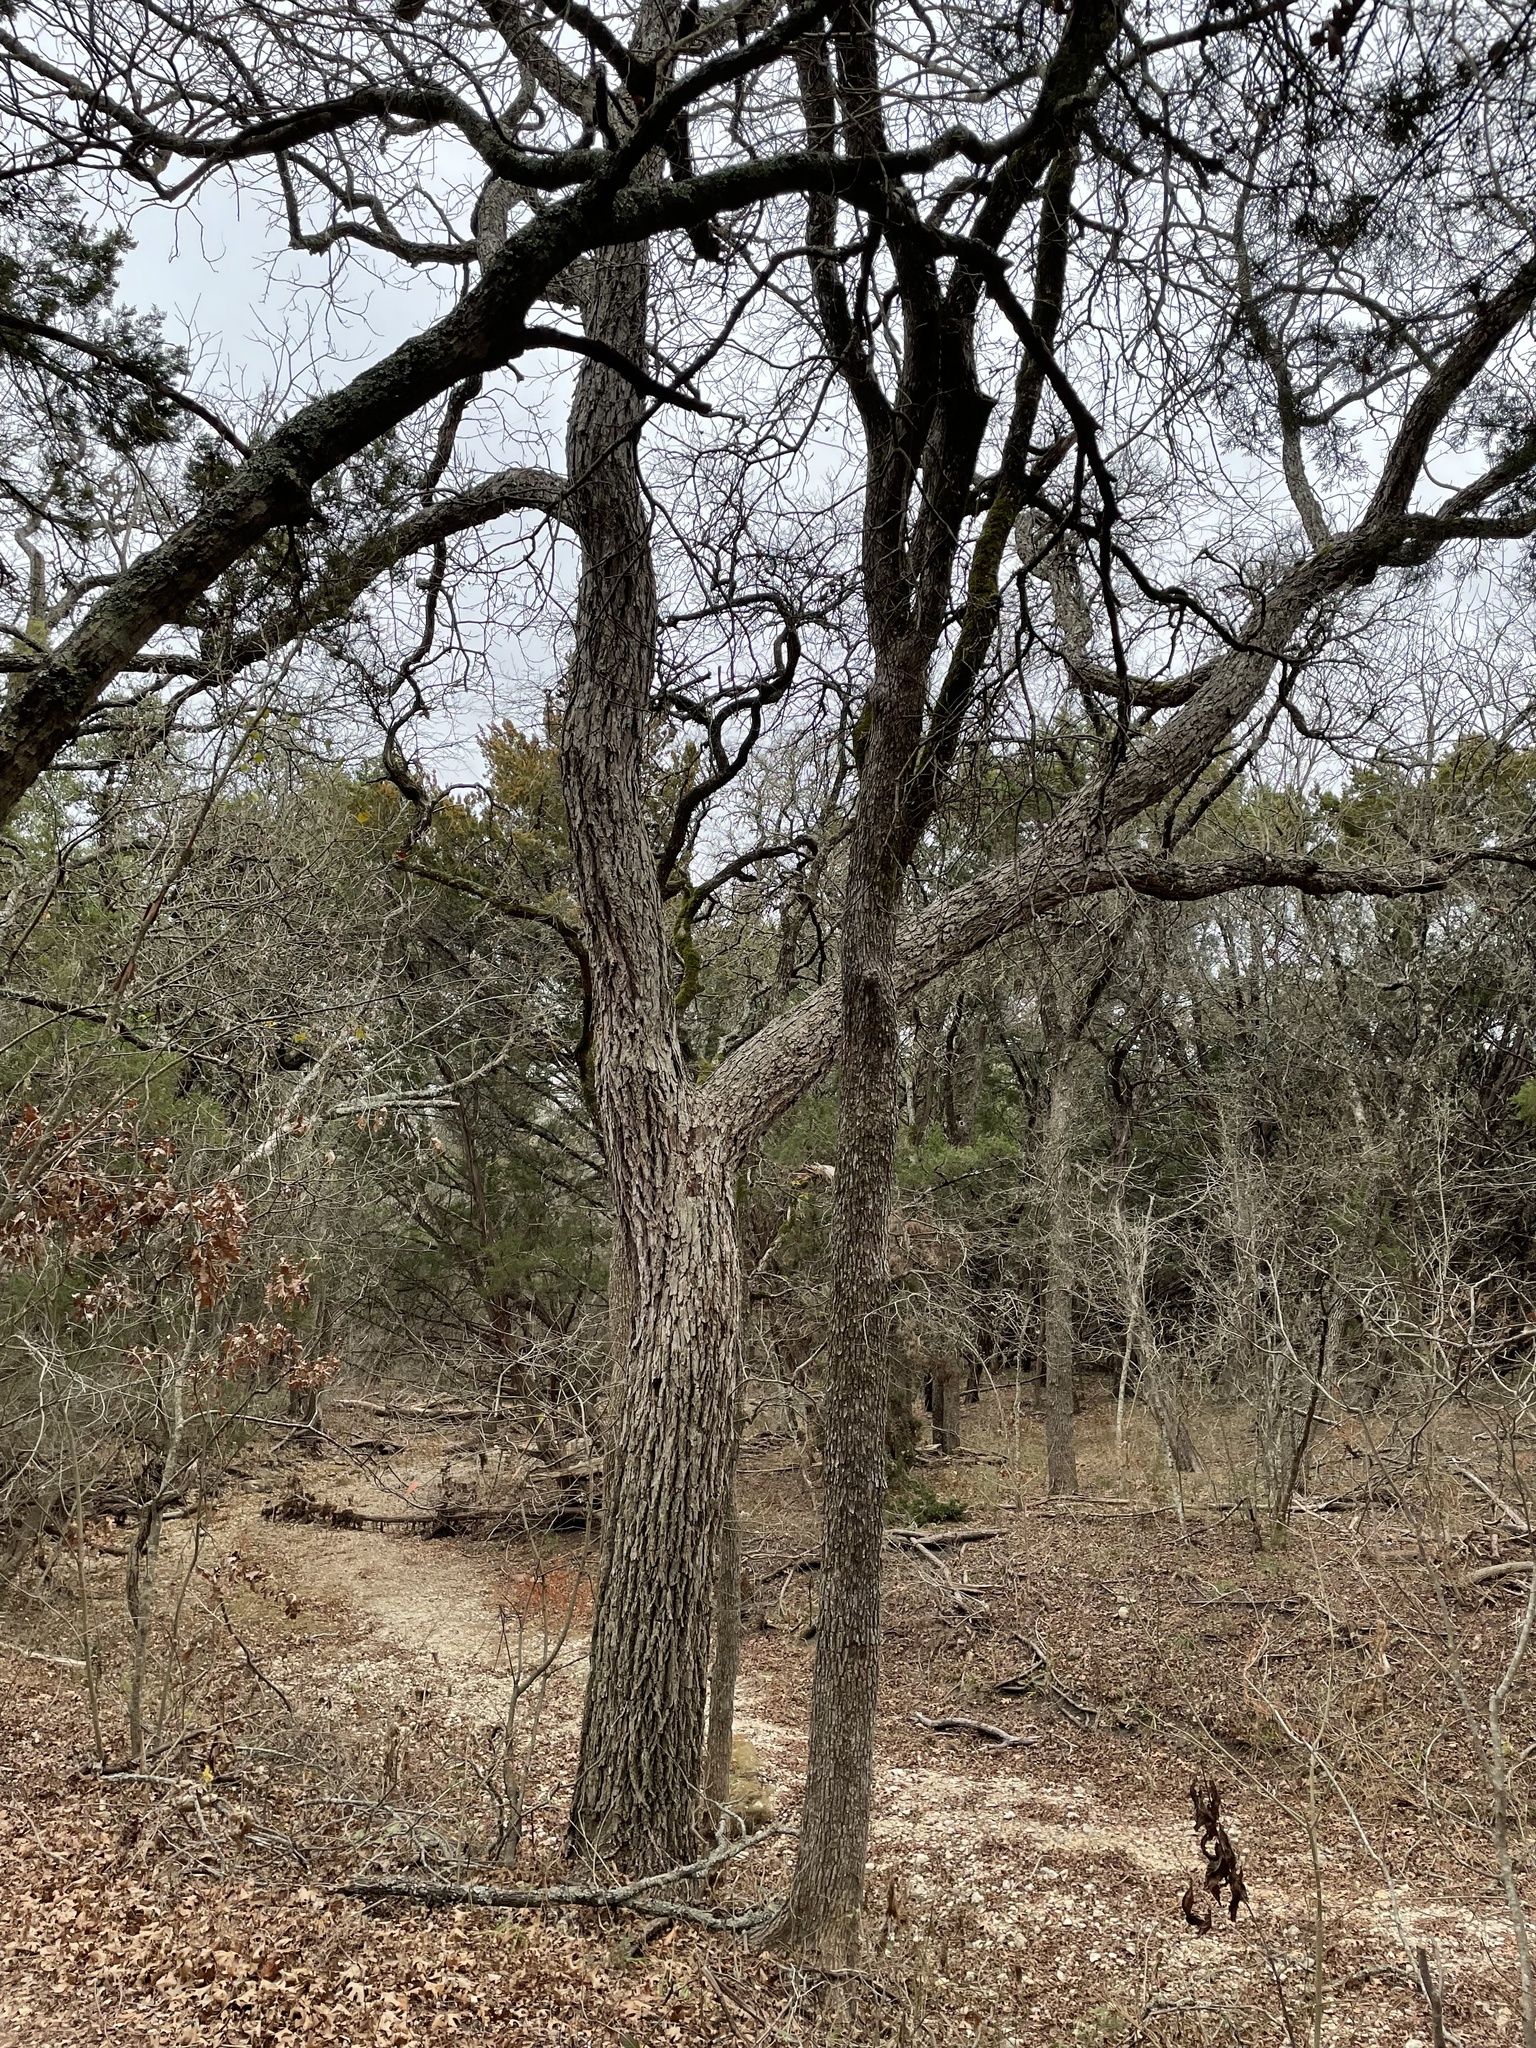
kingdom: Plantae
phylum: Tracheophyta
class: Magnoliopsida
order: Fagales
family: Juglandaceae
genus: Carya
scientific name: Carya illinoinensis
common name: Pecan
